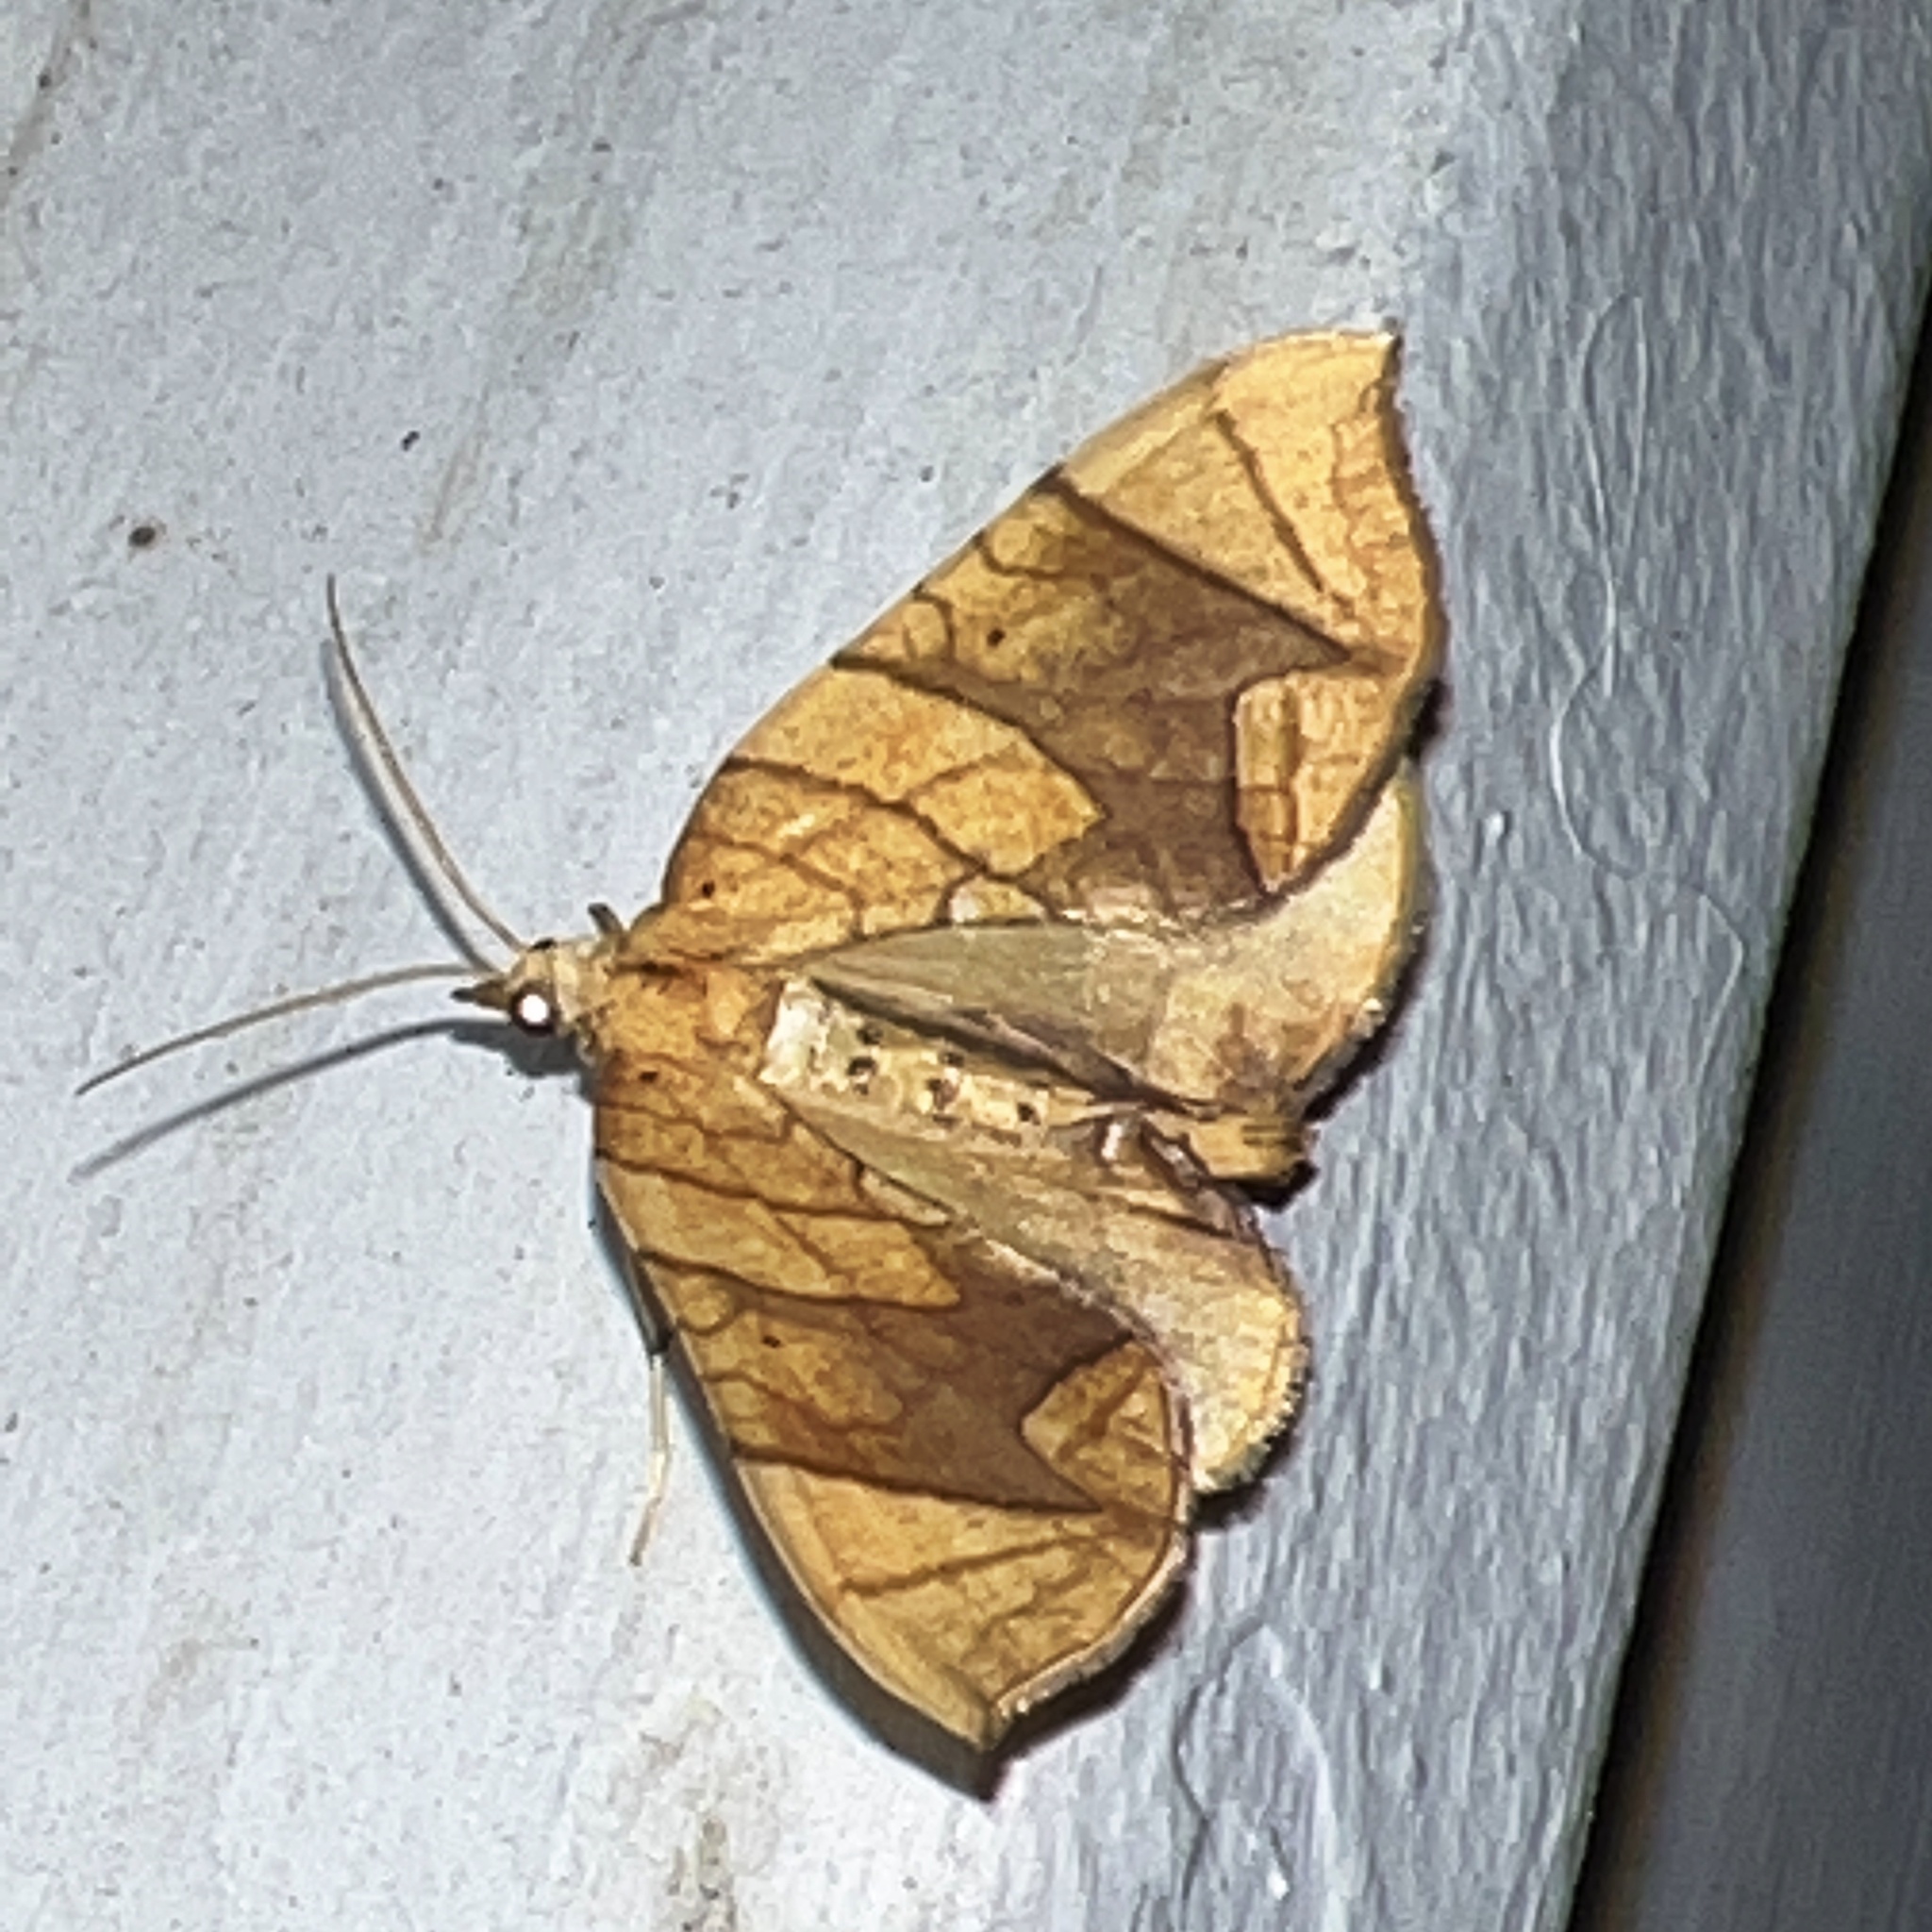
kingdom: Animalia
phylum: Arthropoda
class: Insecta
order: Lepidoptera
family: Geometridae
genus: Eulithis
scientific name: Eulithis diversilineata
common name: Grapevine looper
